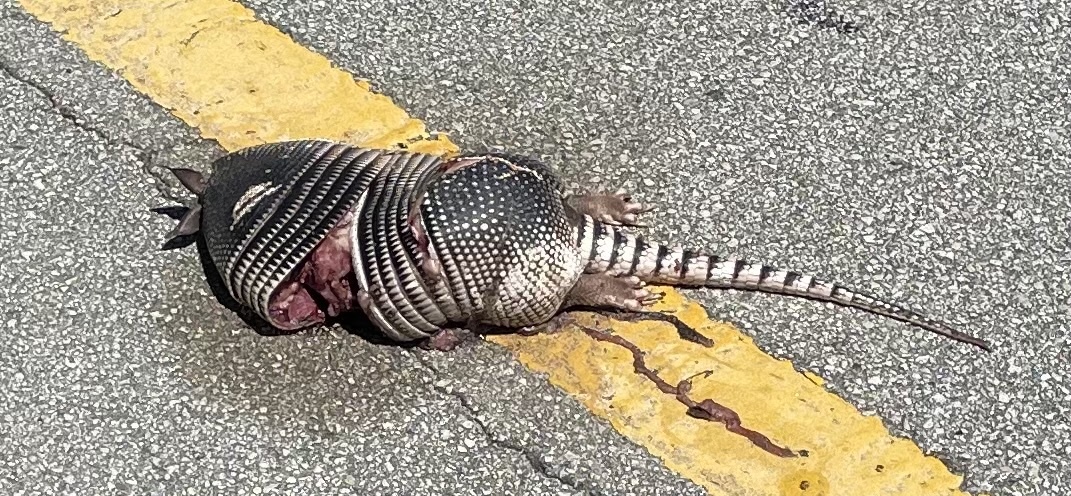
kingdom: Animalia
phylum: Chordata
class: Mammalia
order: Cingulata
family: Dasypodidae
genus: Dasypus
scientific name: Dasypus novemcinctus
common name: Nine-banded armadillo
